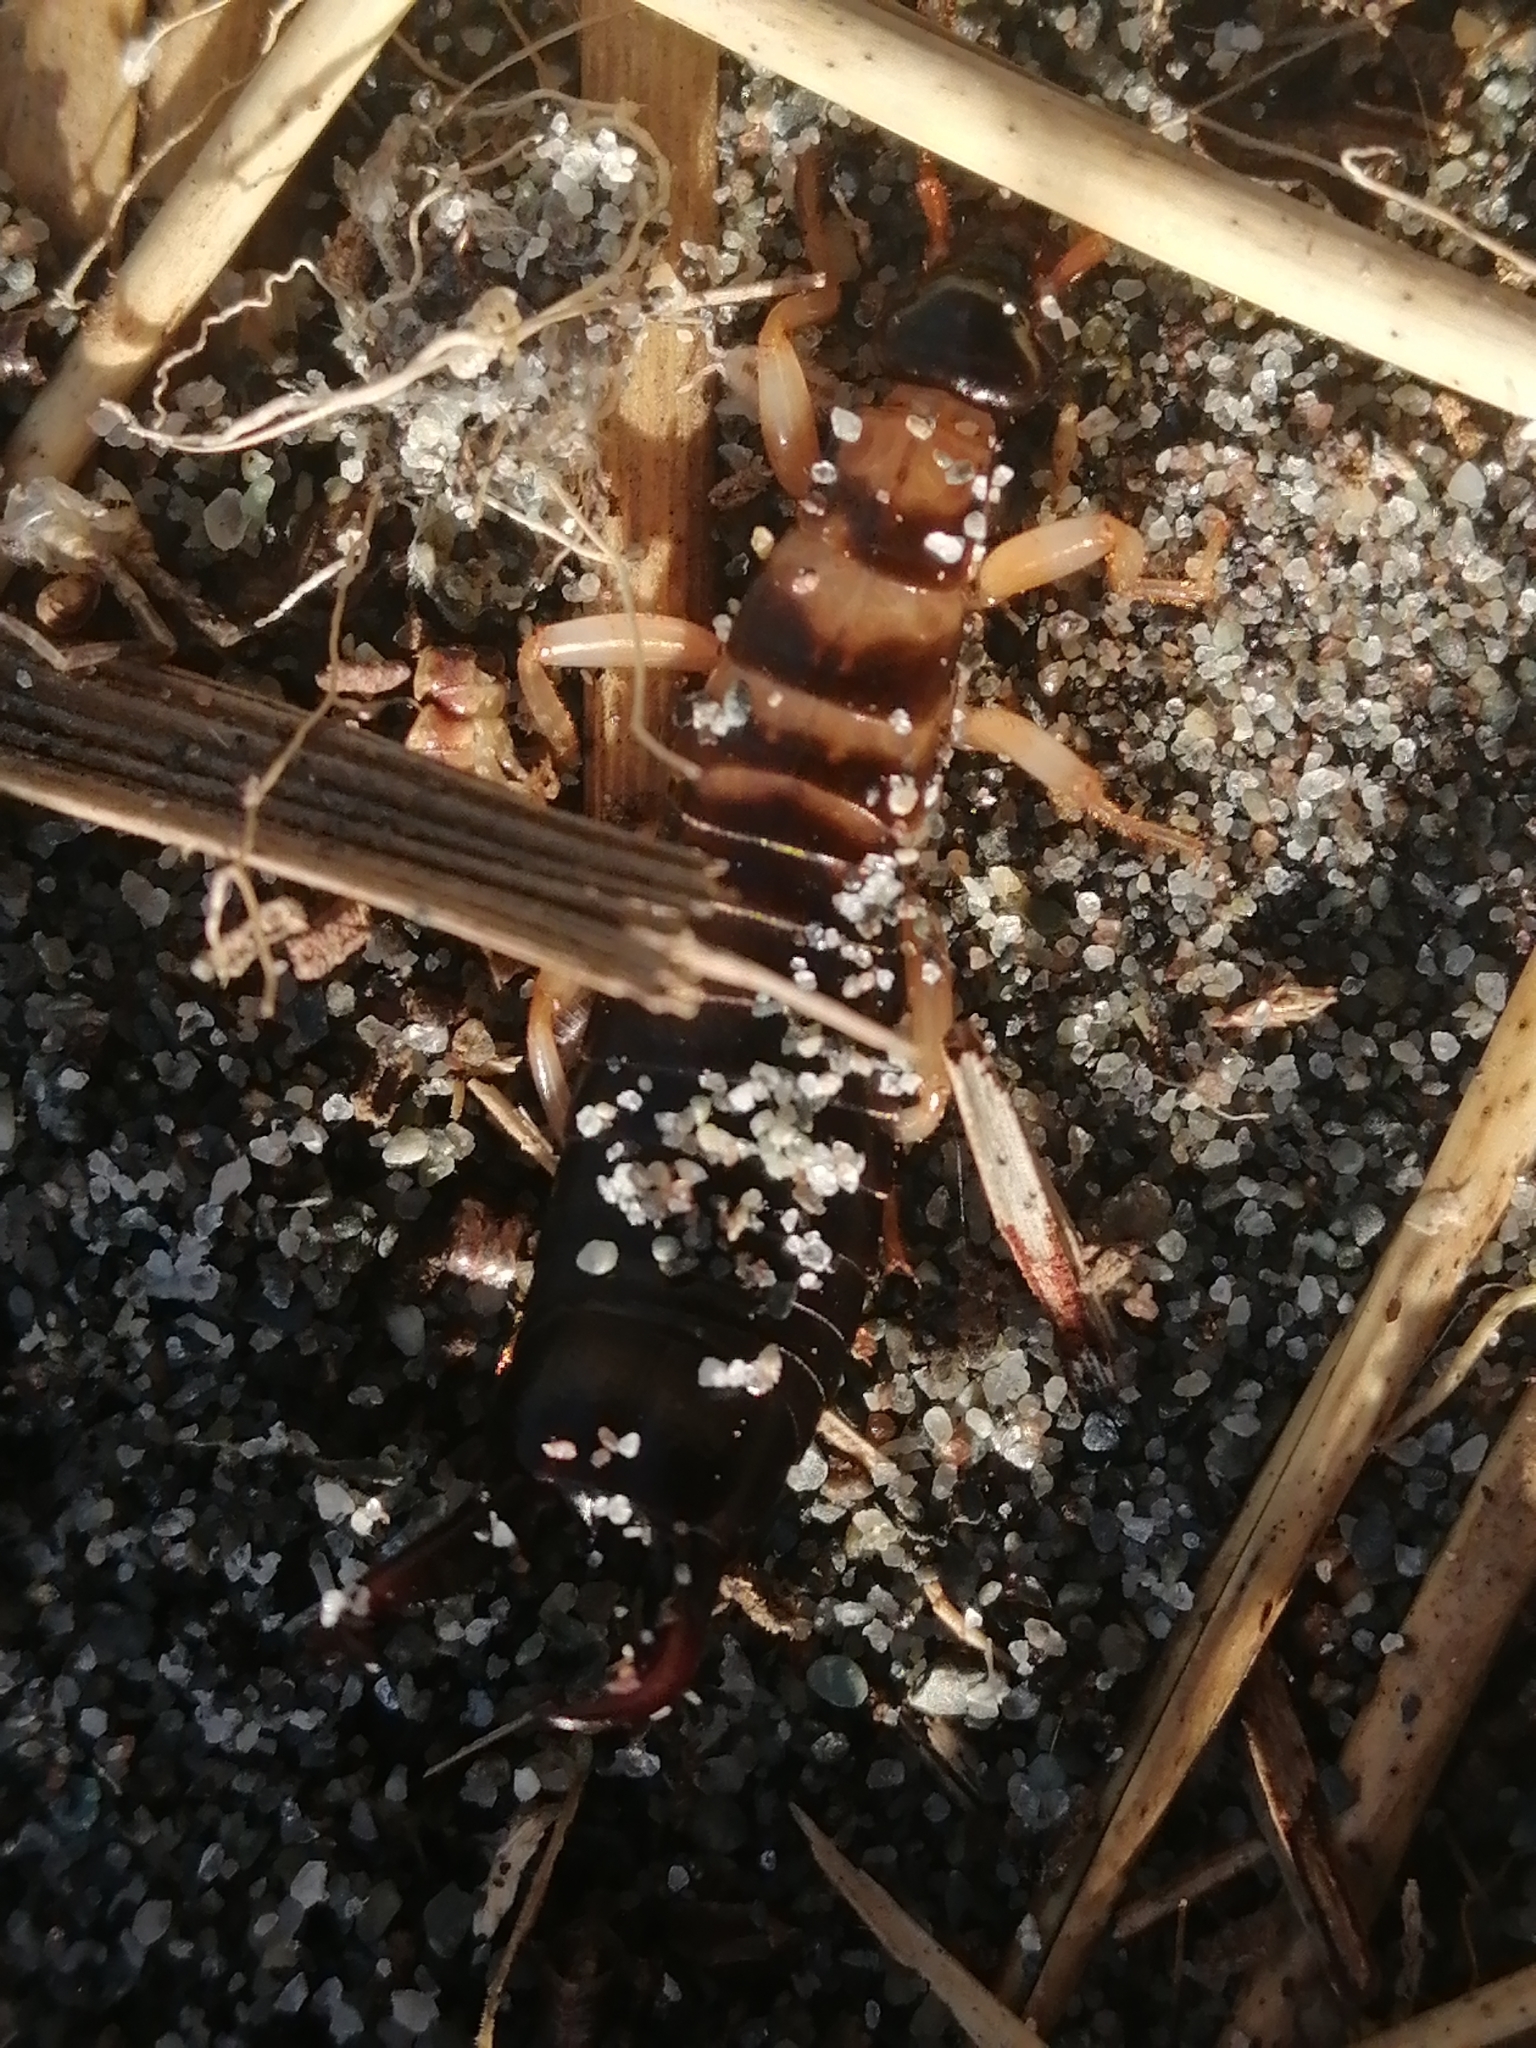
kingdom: Animalia
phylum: Arthropoda
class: Insecta
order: Dermaptera
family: Anisolabididae
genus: Anisolabis
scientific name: Anisolabis littorea
